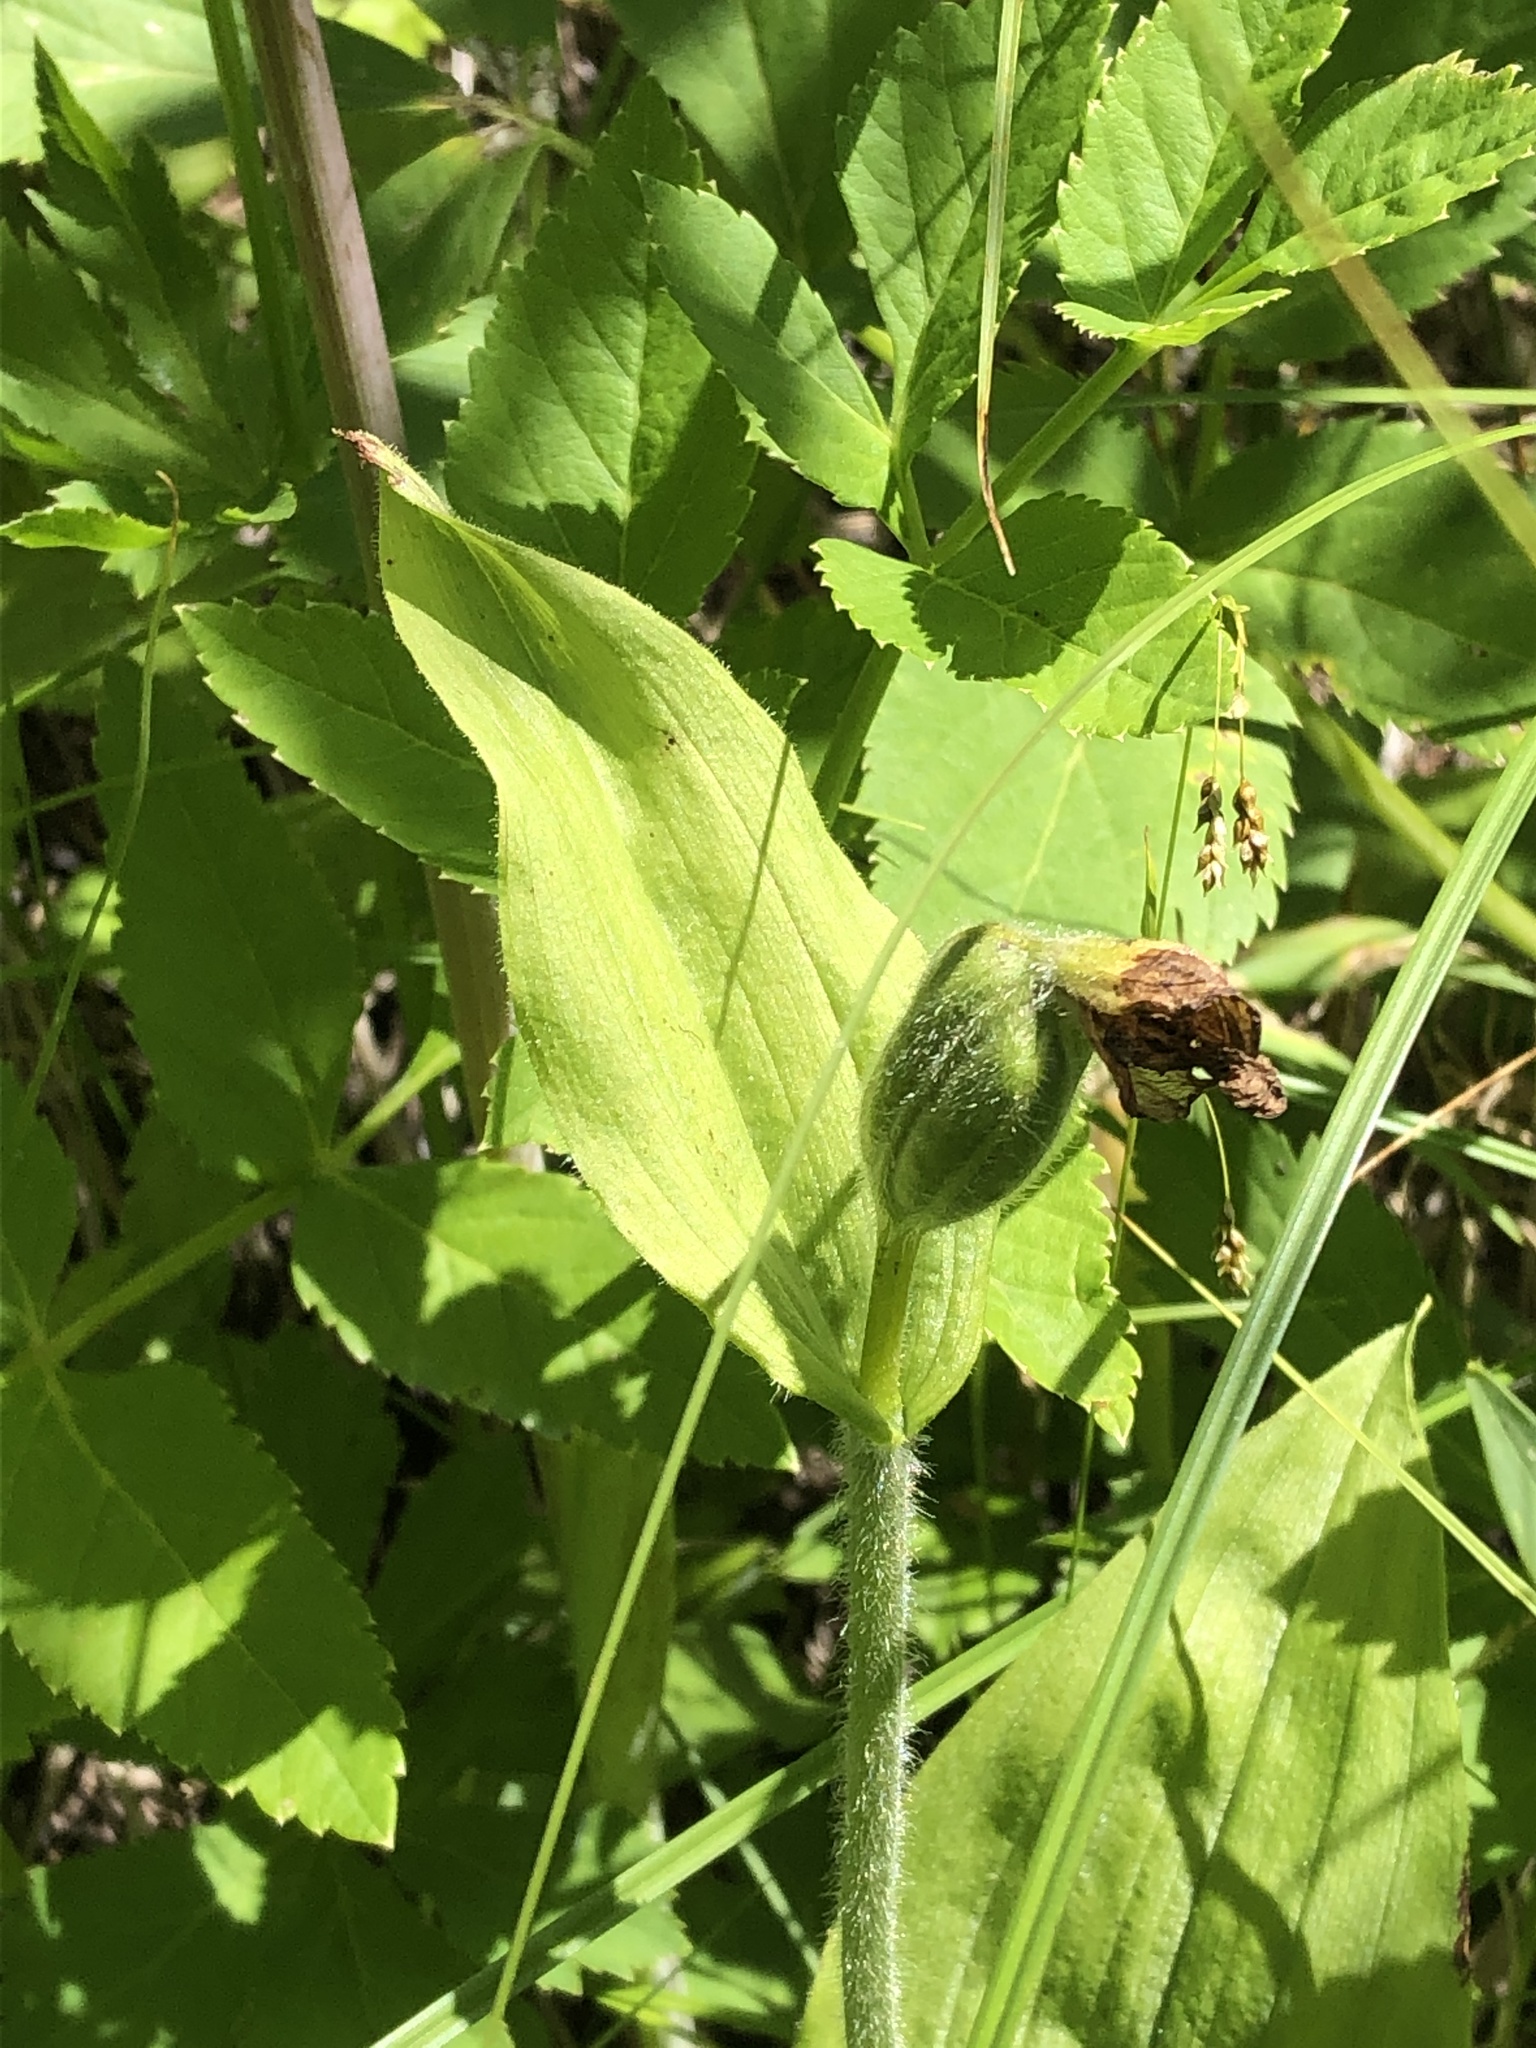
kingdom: Plantae
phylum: Tracheophyta
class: Liliopsida
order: Asparagales
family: Orchidaceae
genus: Cypripedium
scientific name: Cypripedium passerinum
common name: Sparrow's-egg lady's-slipper
